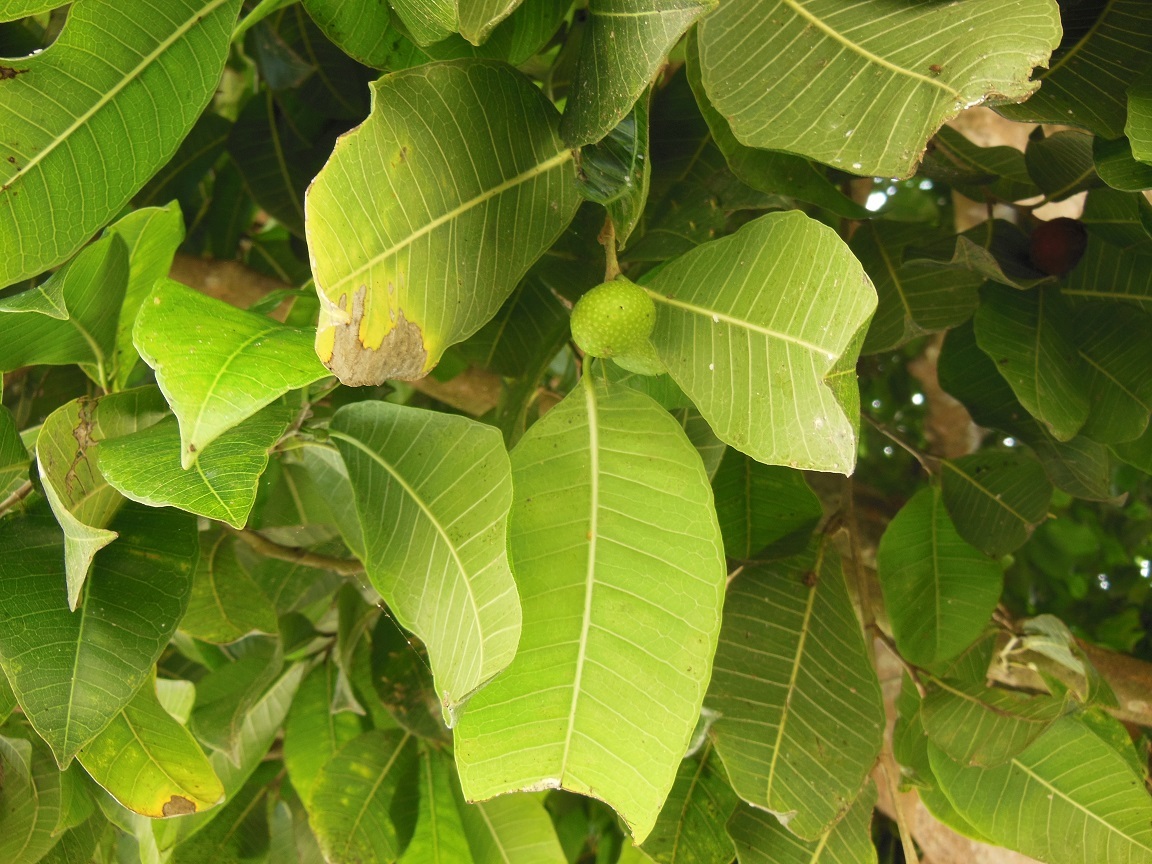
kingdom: Plantae
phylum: Tracheophyta
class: Magnoliopsida
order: Rosales
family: Moraceae
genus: Brosimum
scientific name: Brosimum alicastrum
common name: Breadnut
